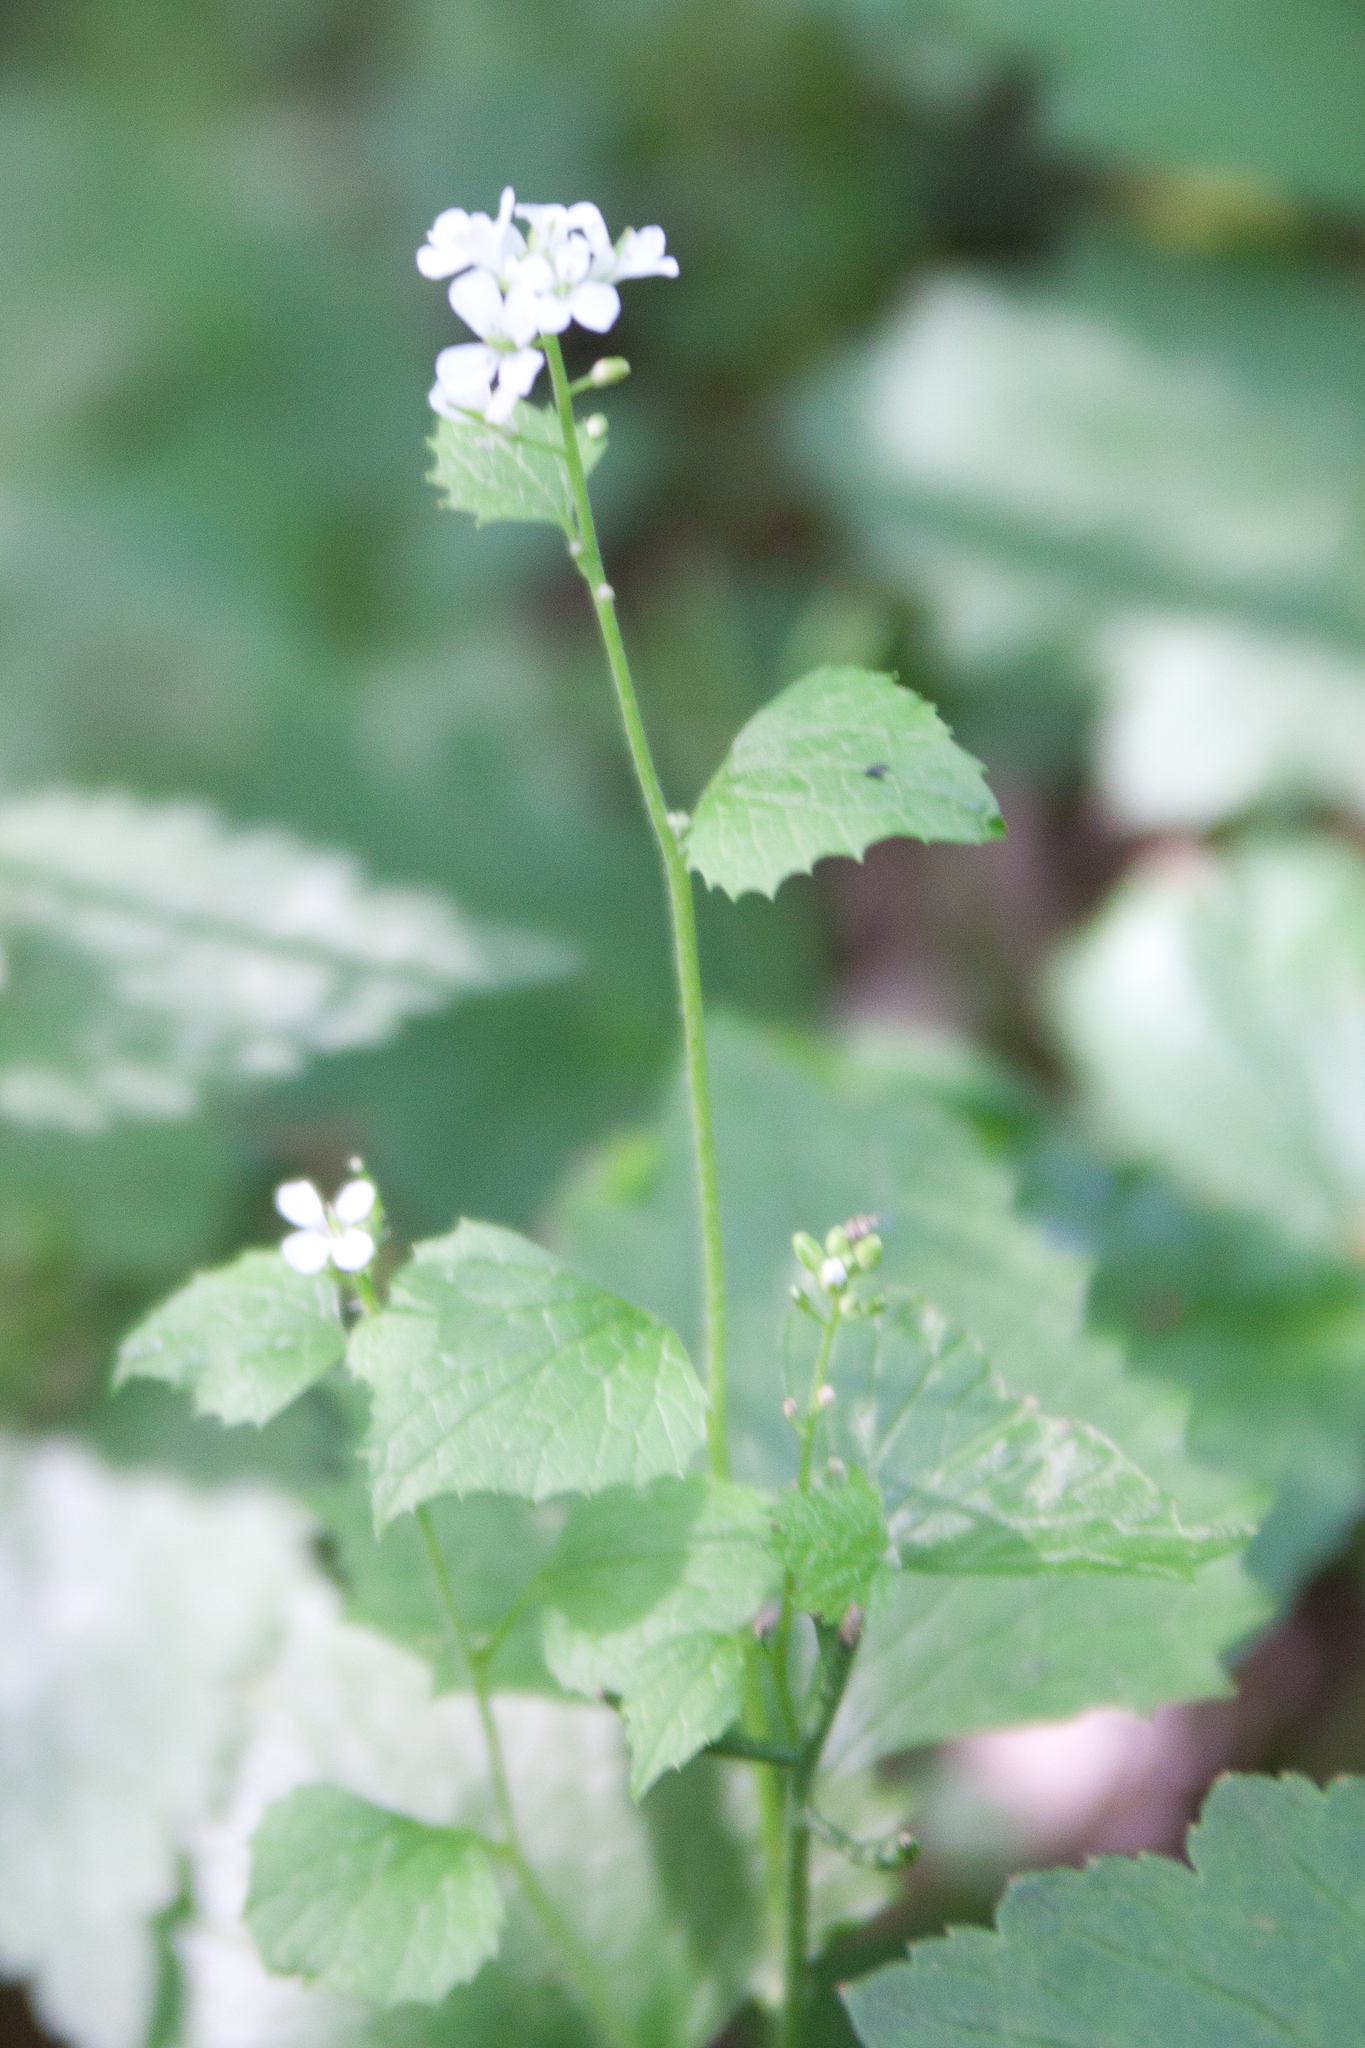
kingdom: Plantae
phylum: Tracheophyta
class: Magnoliopsida
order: Brassicales
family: Brassicaceae
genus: Alliaria
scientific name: Alliaria petiolata
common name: Garlic mustard
